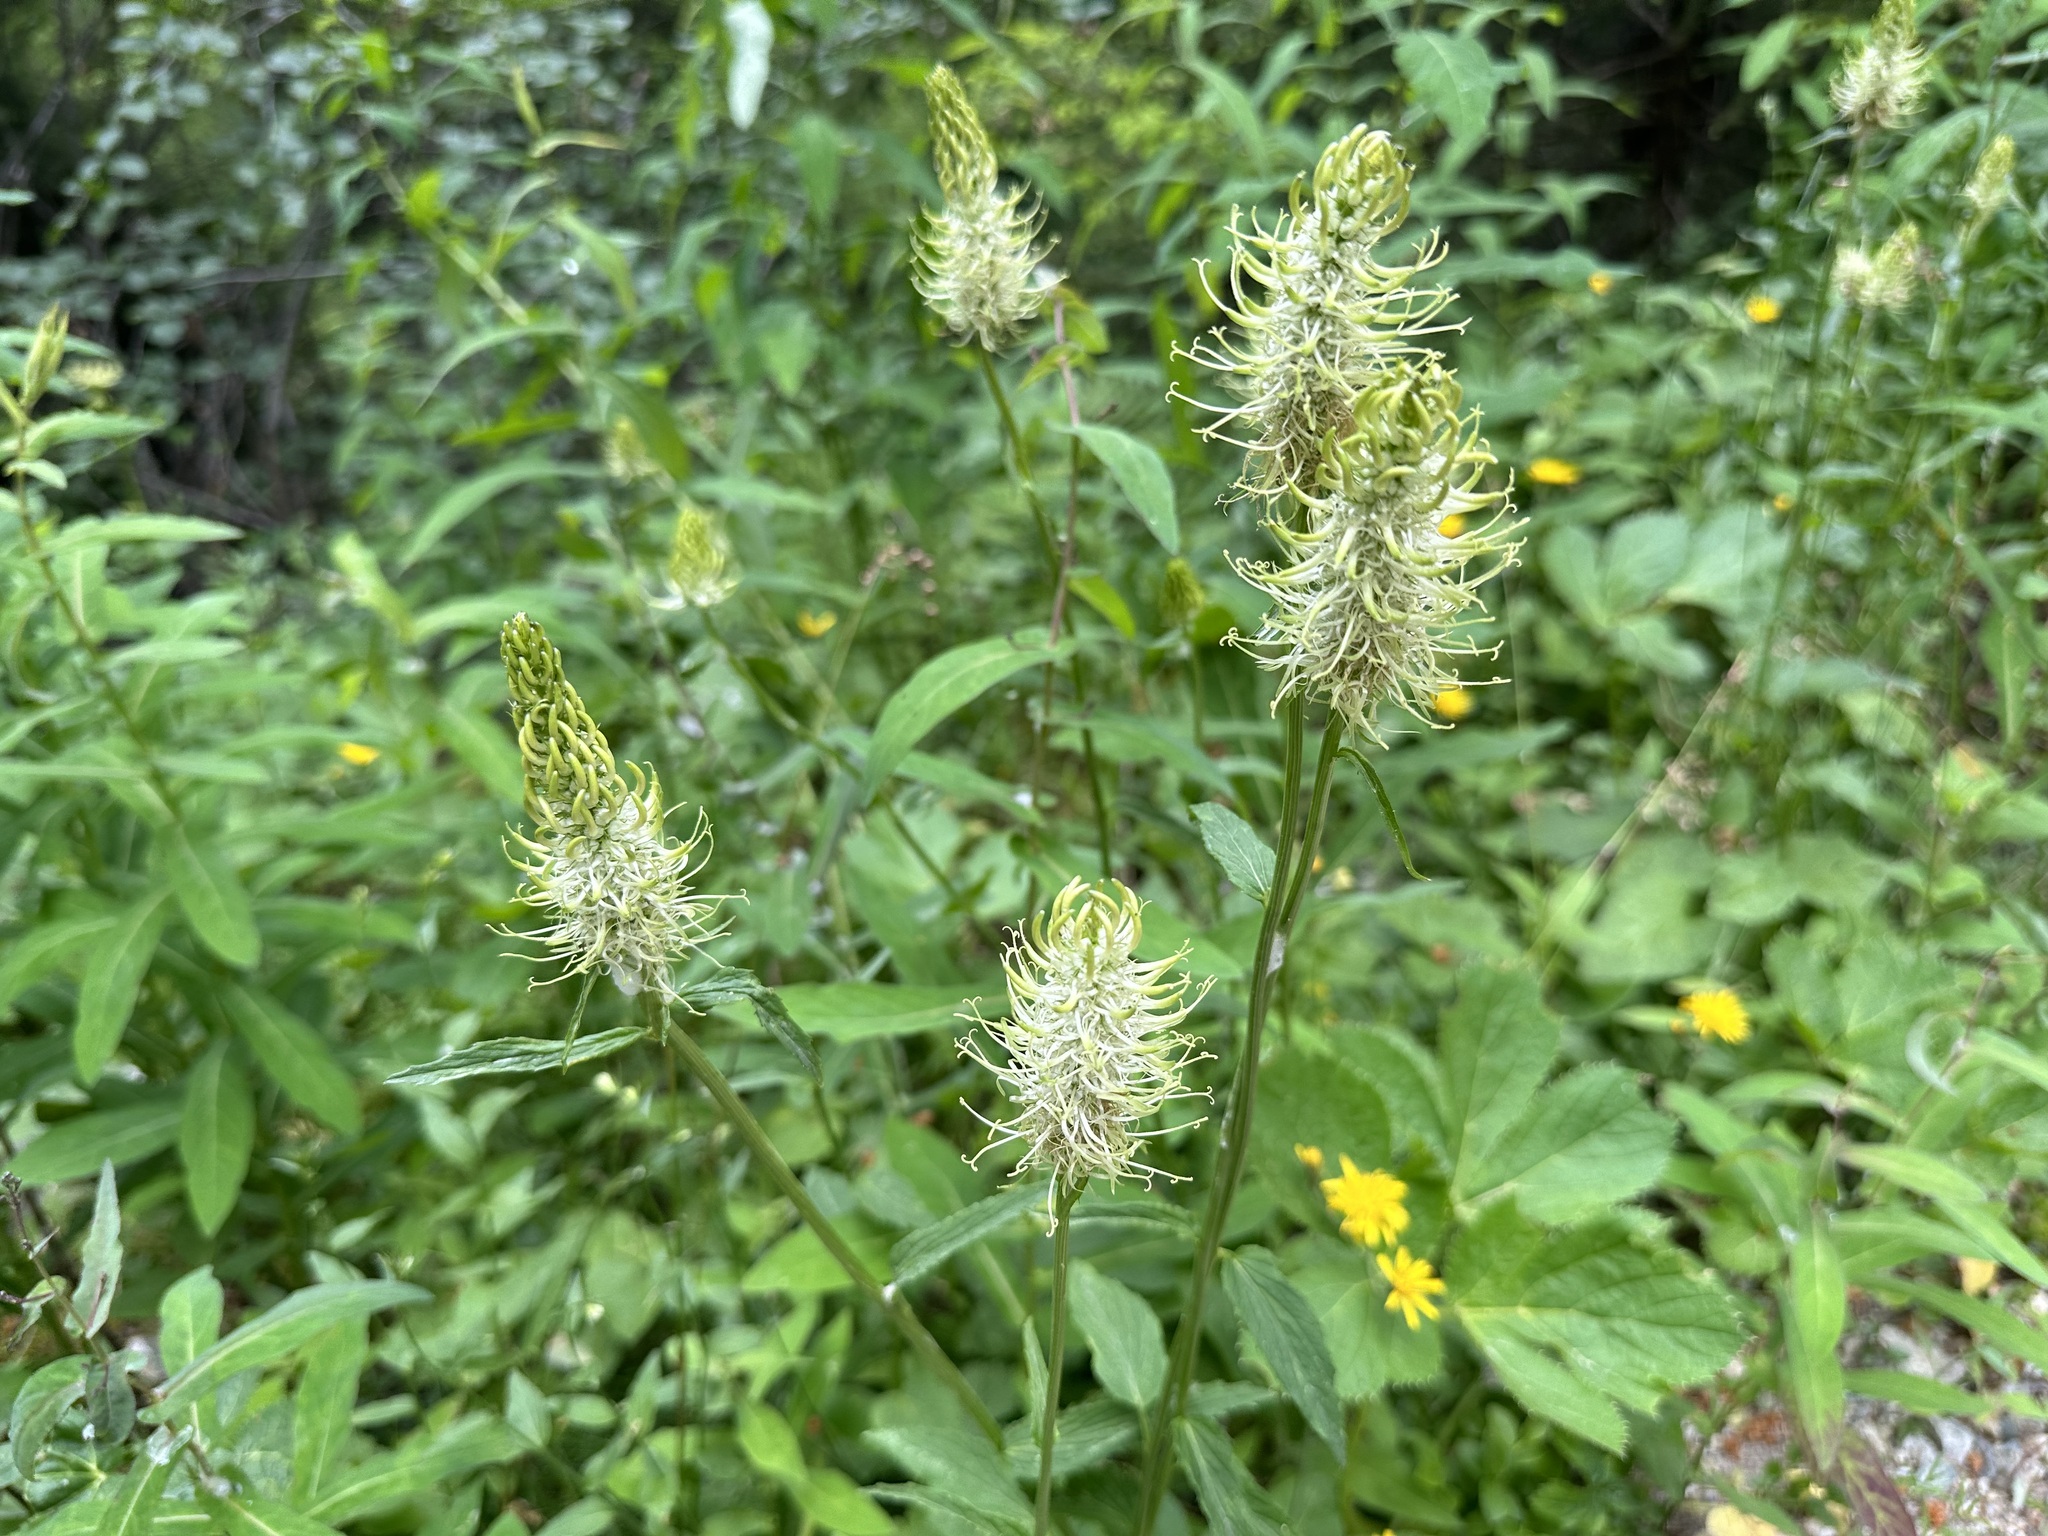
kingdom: Plantae
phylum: Tracheophyta
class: Magnoliopsida
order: Asterales
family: Campanulaceae
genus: Phyteuma
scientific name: Phyteuma spicatum
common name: Spiked rampion
